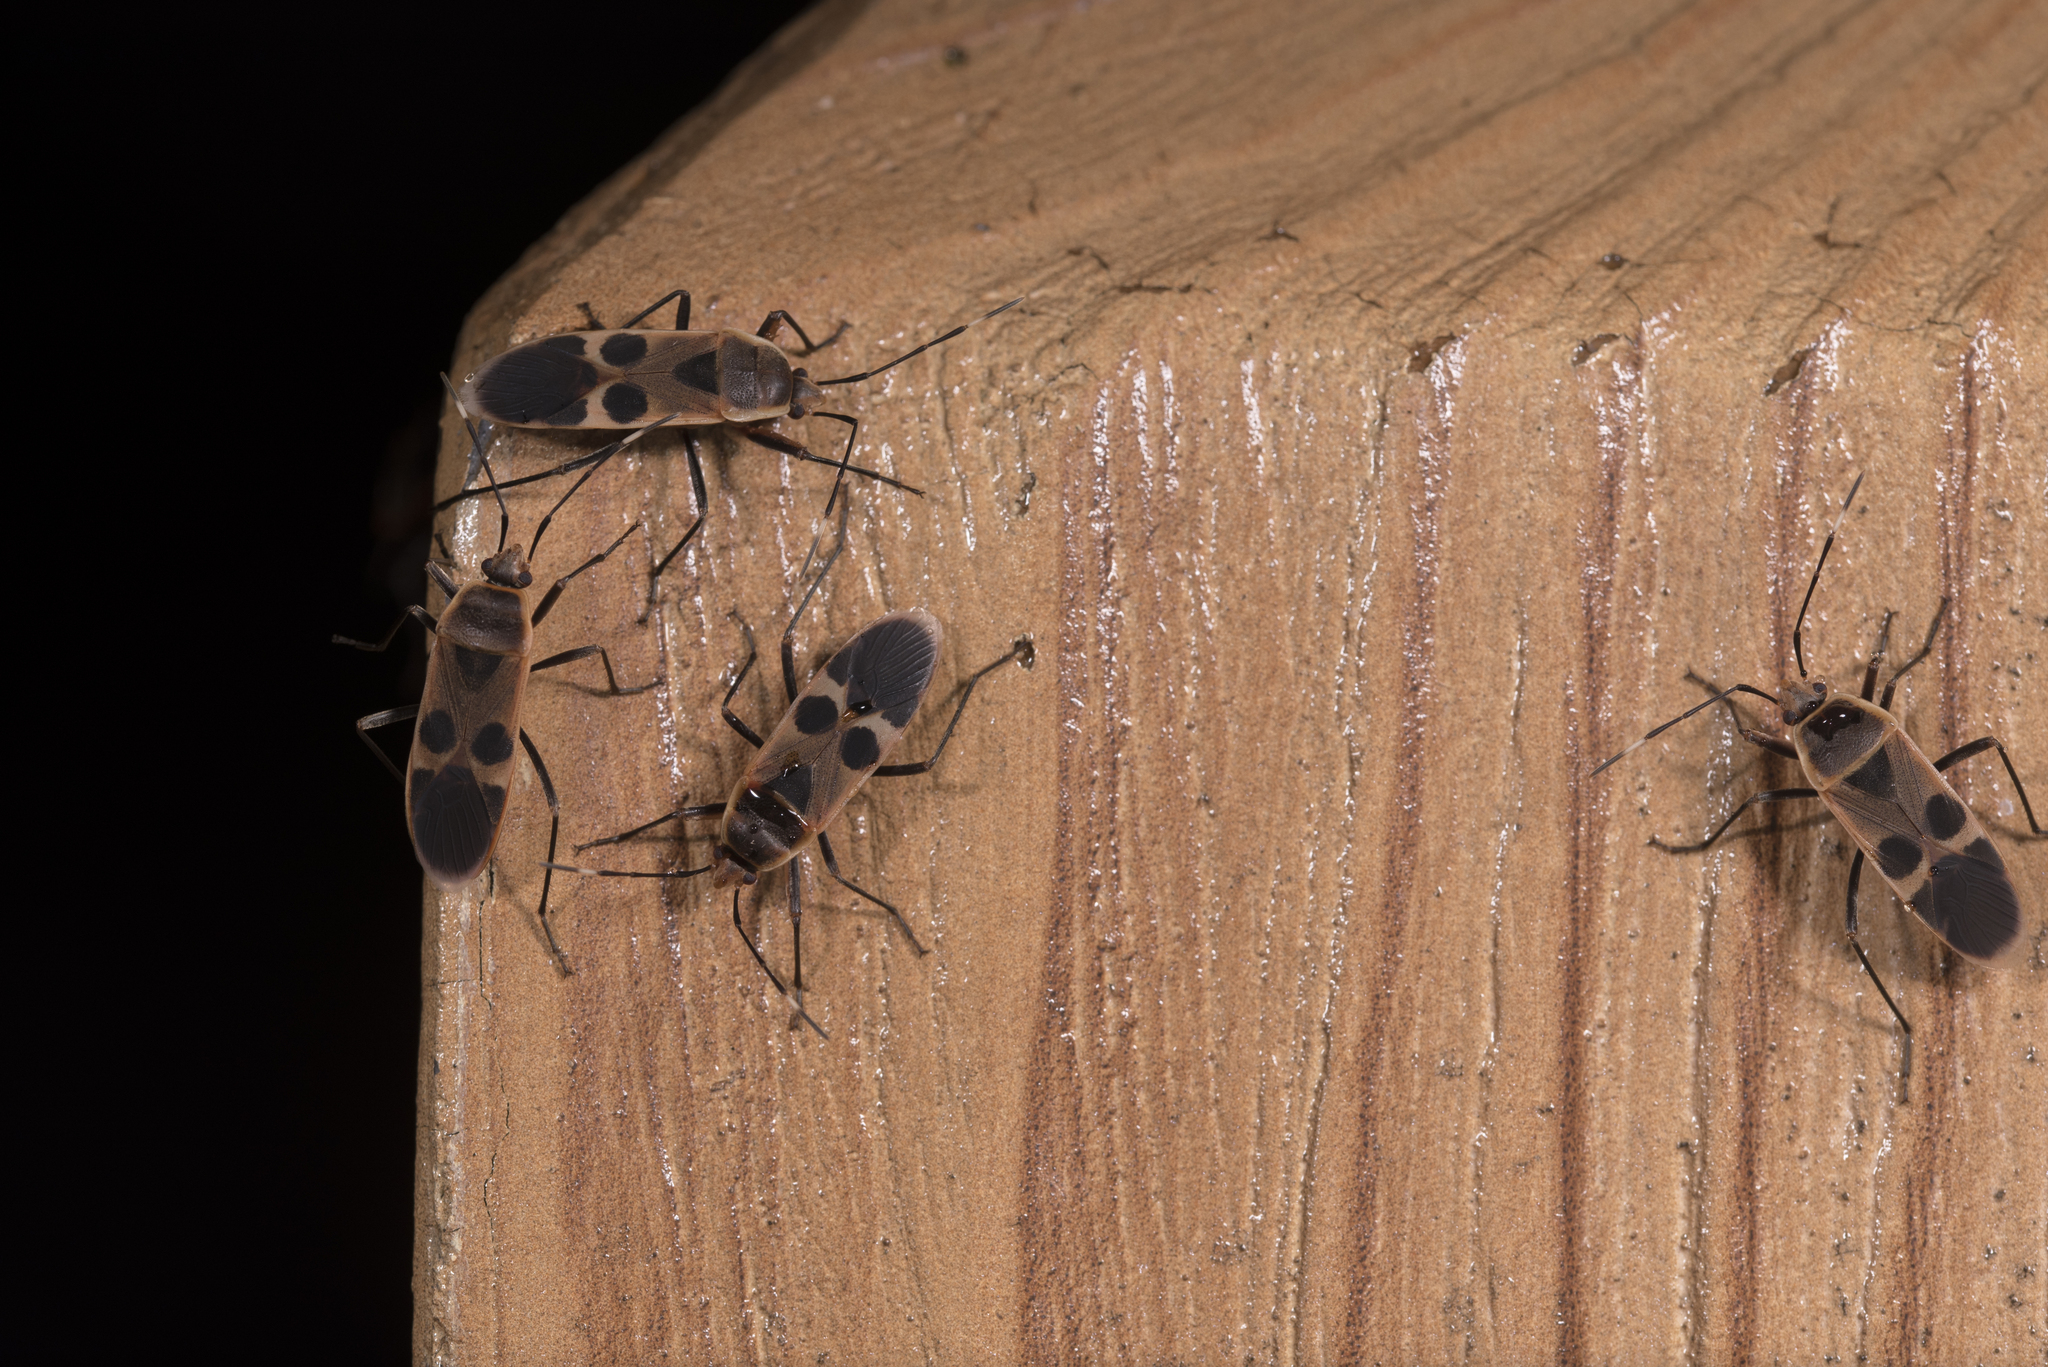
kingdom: Animalia
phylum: Arthropoda
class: Insecta
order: Hemiptera
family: Largidae
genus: Physopelta
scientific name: Physopelta gutta
